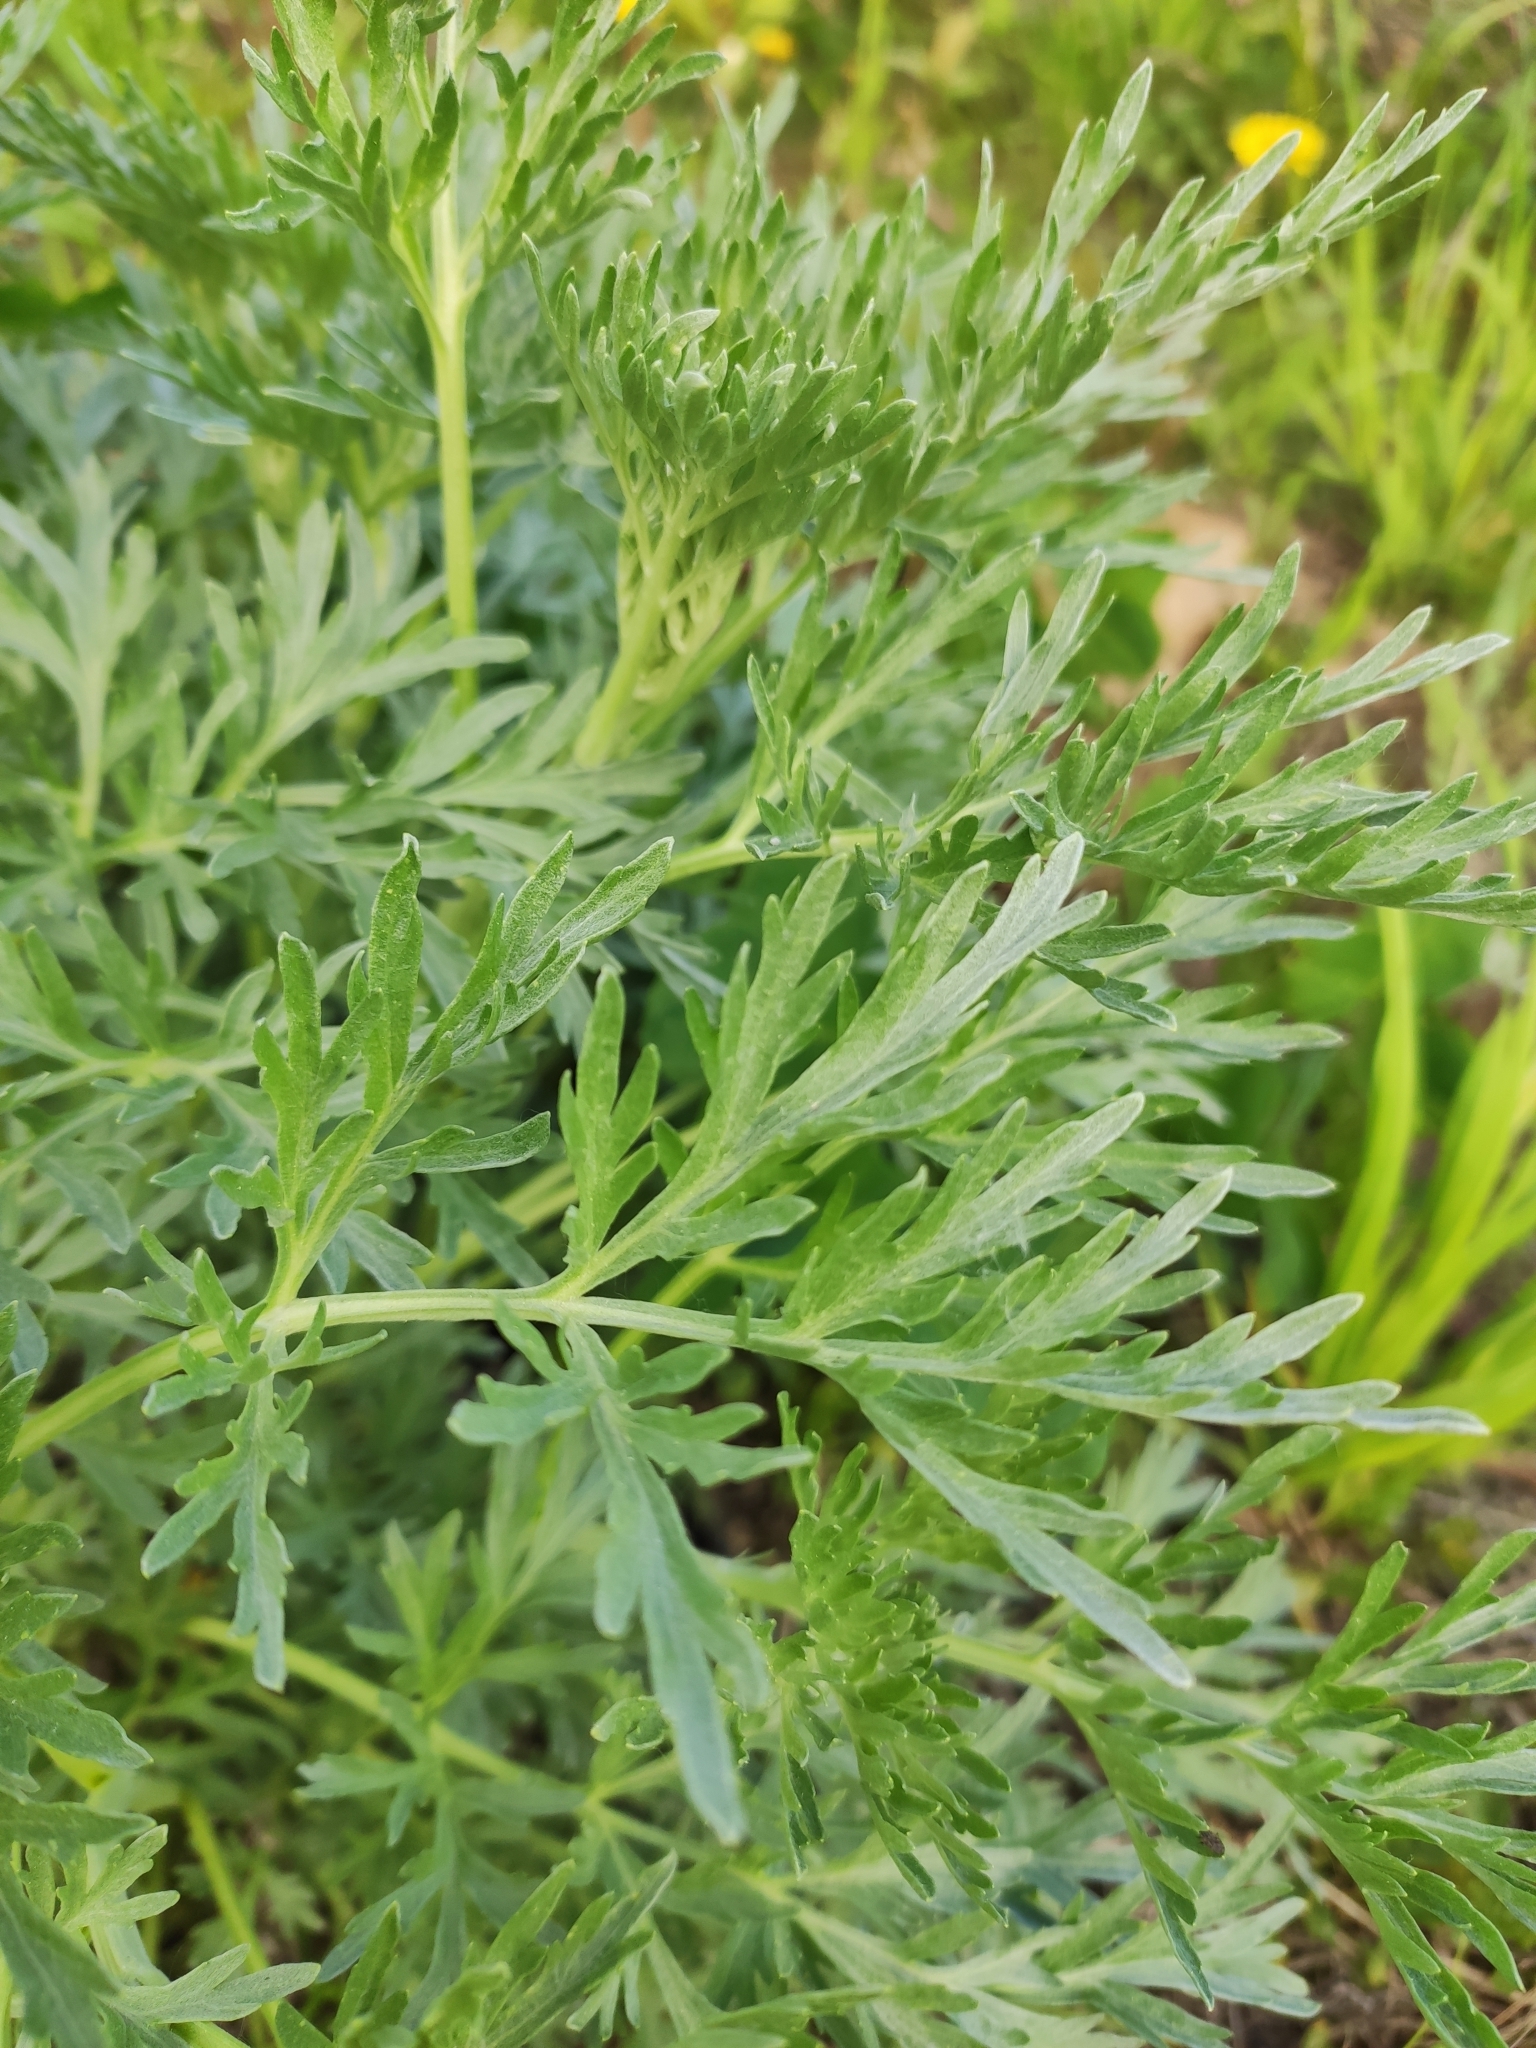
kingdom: Plantae
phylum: Tracheophyta
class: Magnoliopsida
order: Asterales
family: Asteraceae
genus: Artemisia
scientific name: Artemisia absinthium
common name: Wormwood
